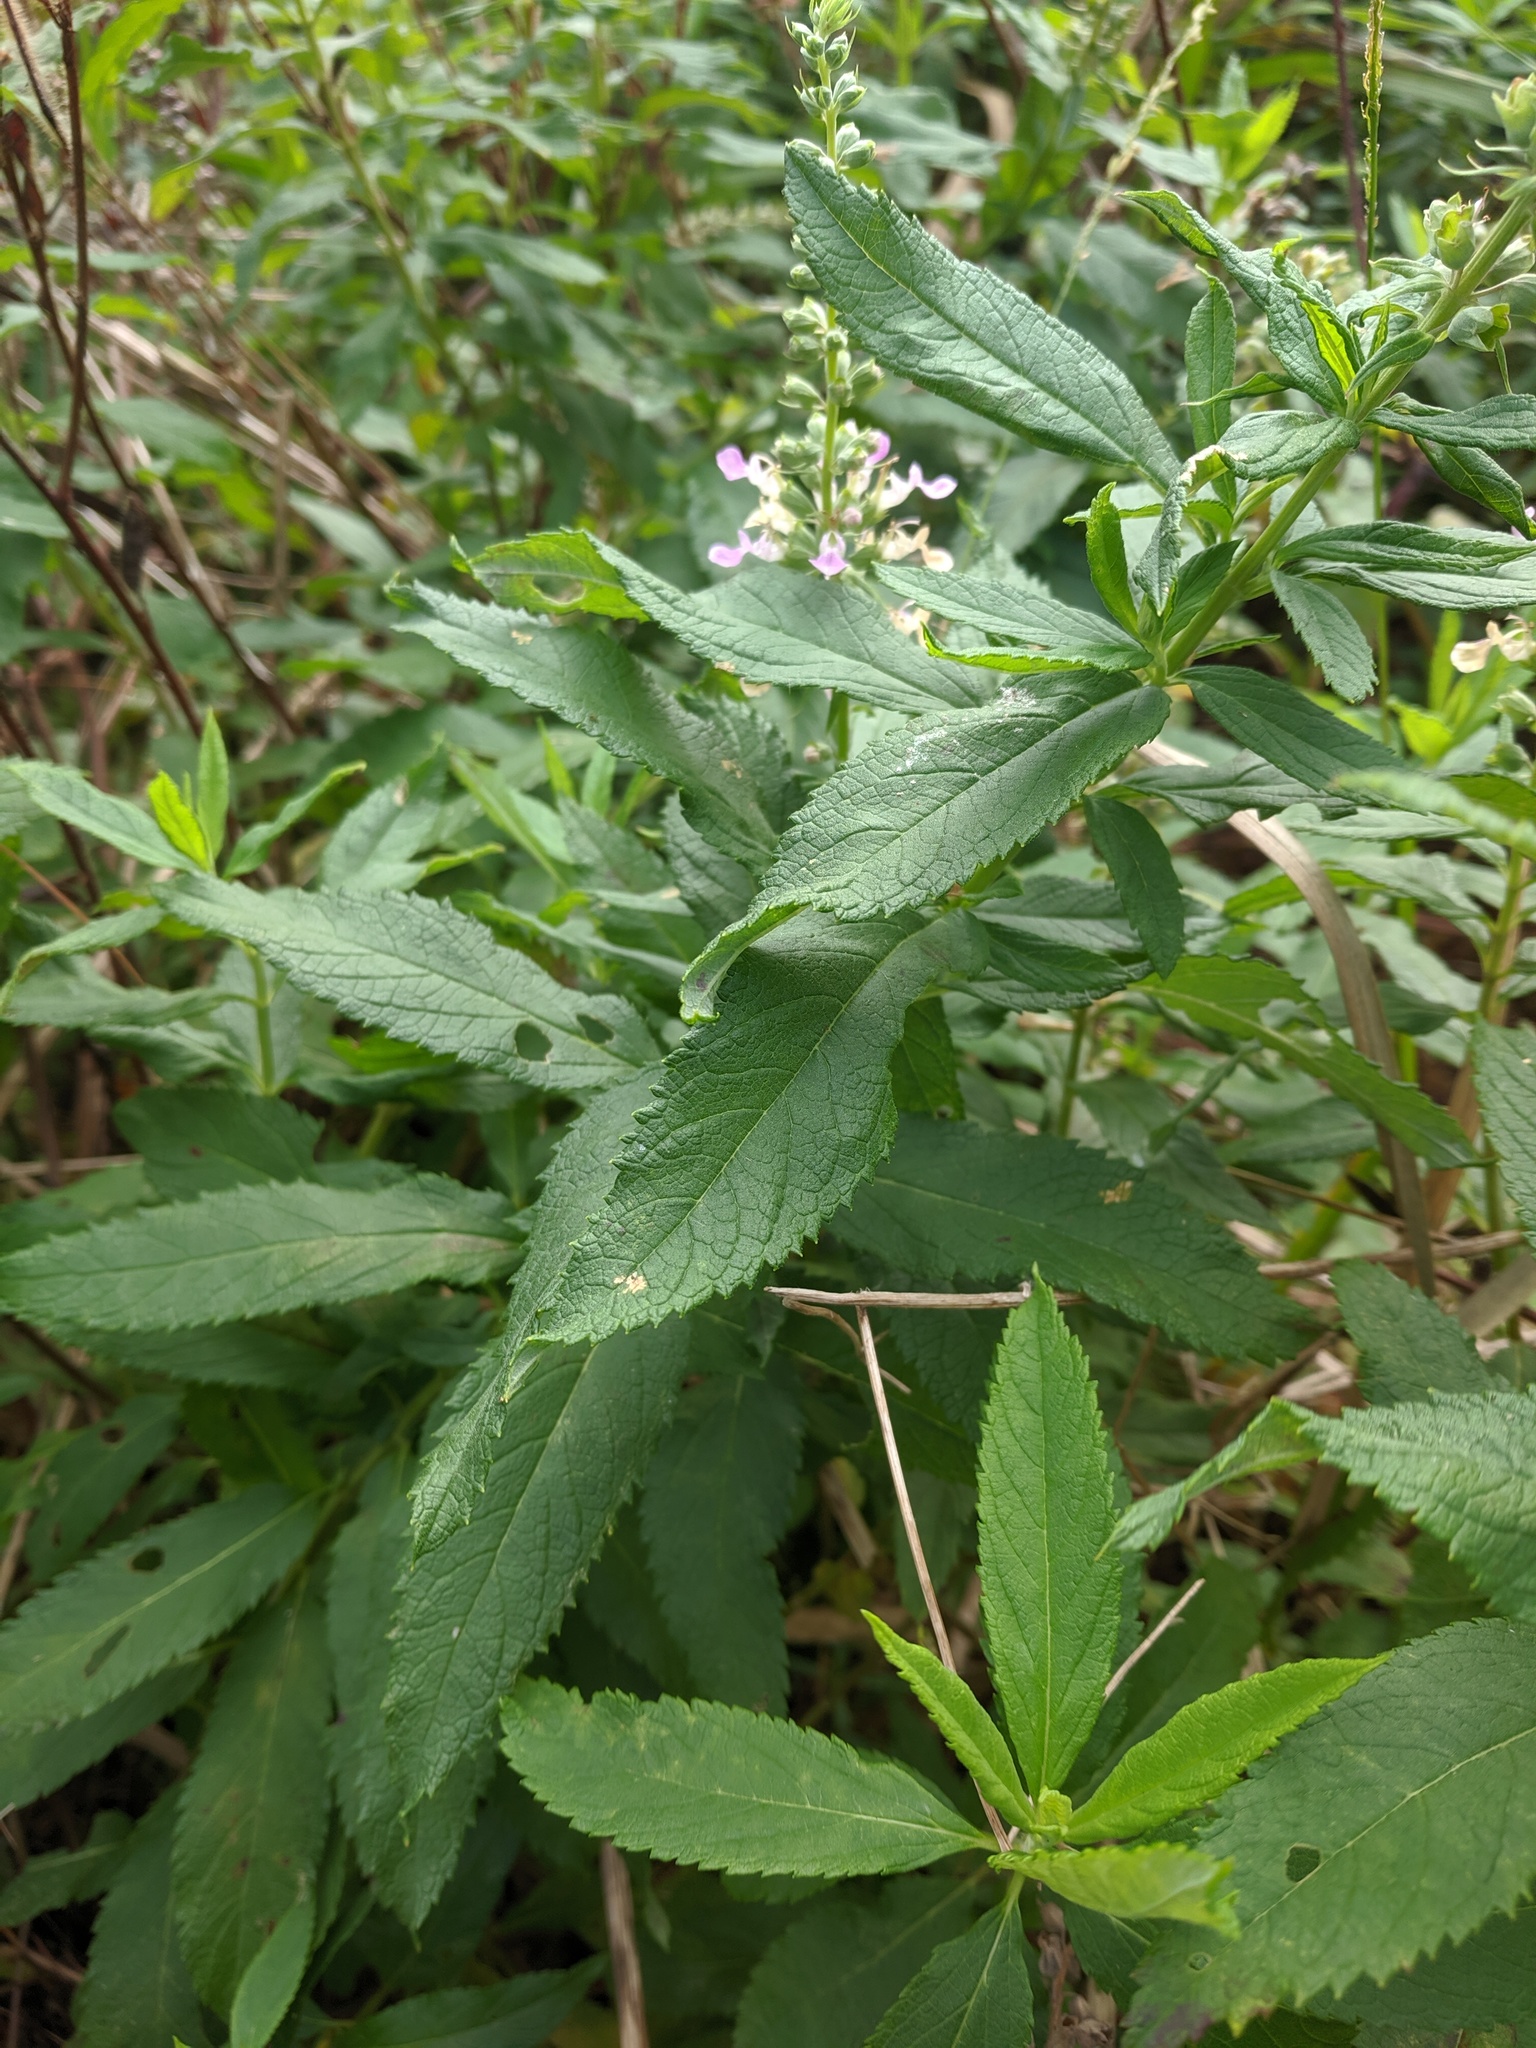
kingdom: Plantae
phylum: Tracheophyta
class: Magnoliopsida
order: Lamiales
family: Lamiaceae
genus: Teucrium
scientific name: Teucrium canadense
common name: American germander
